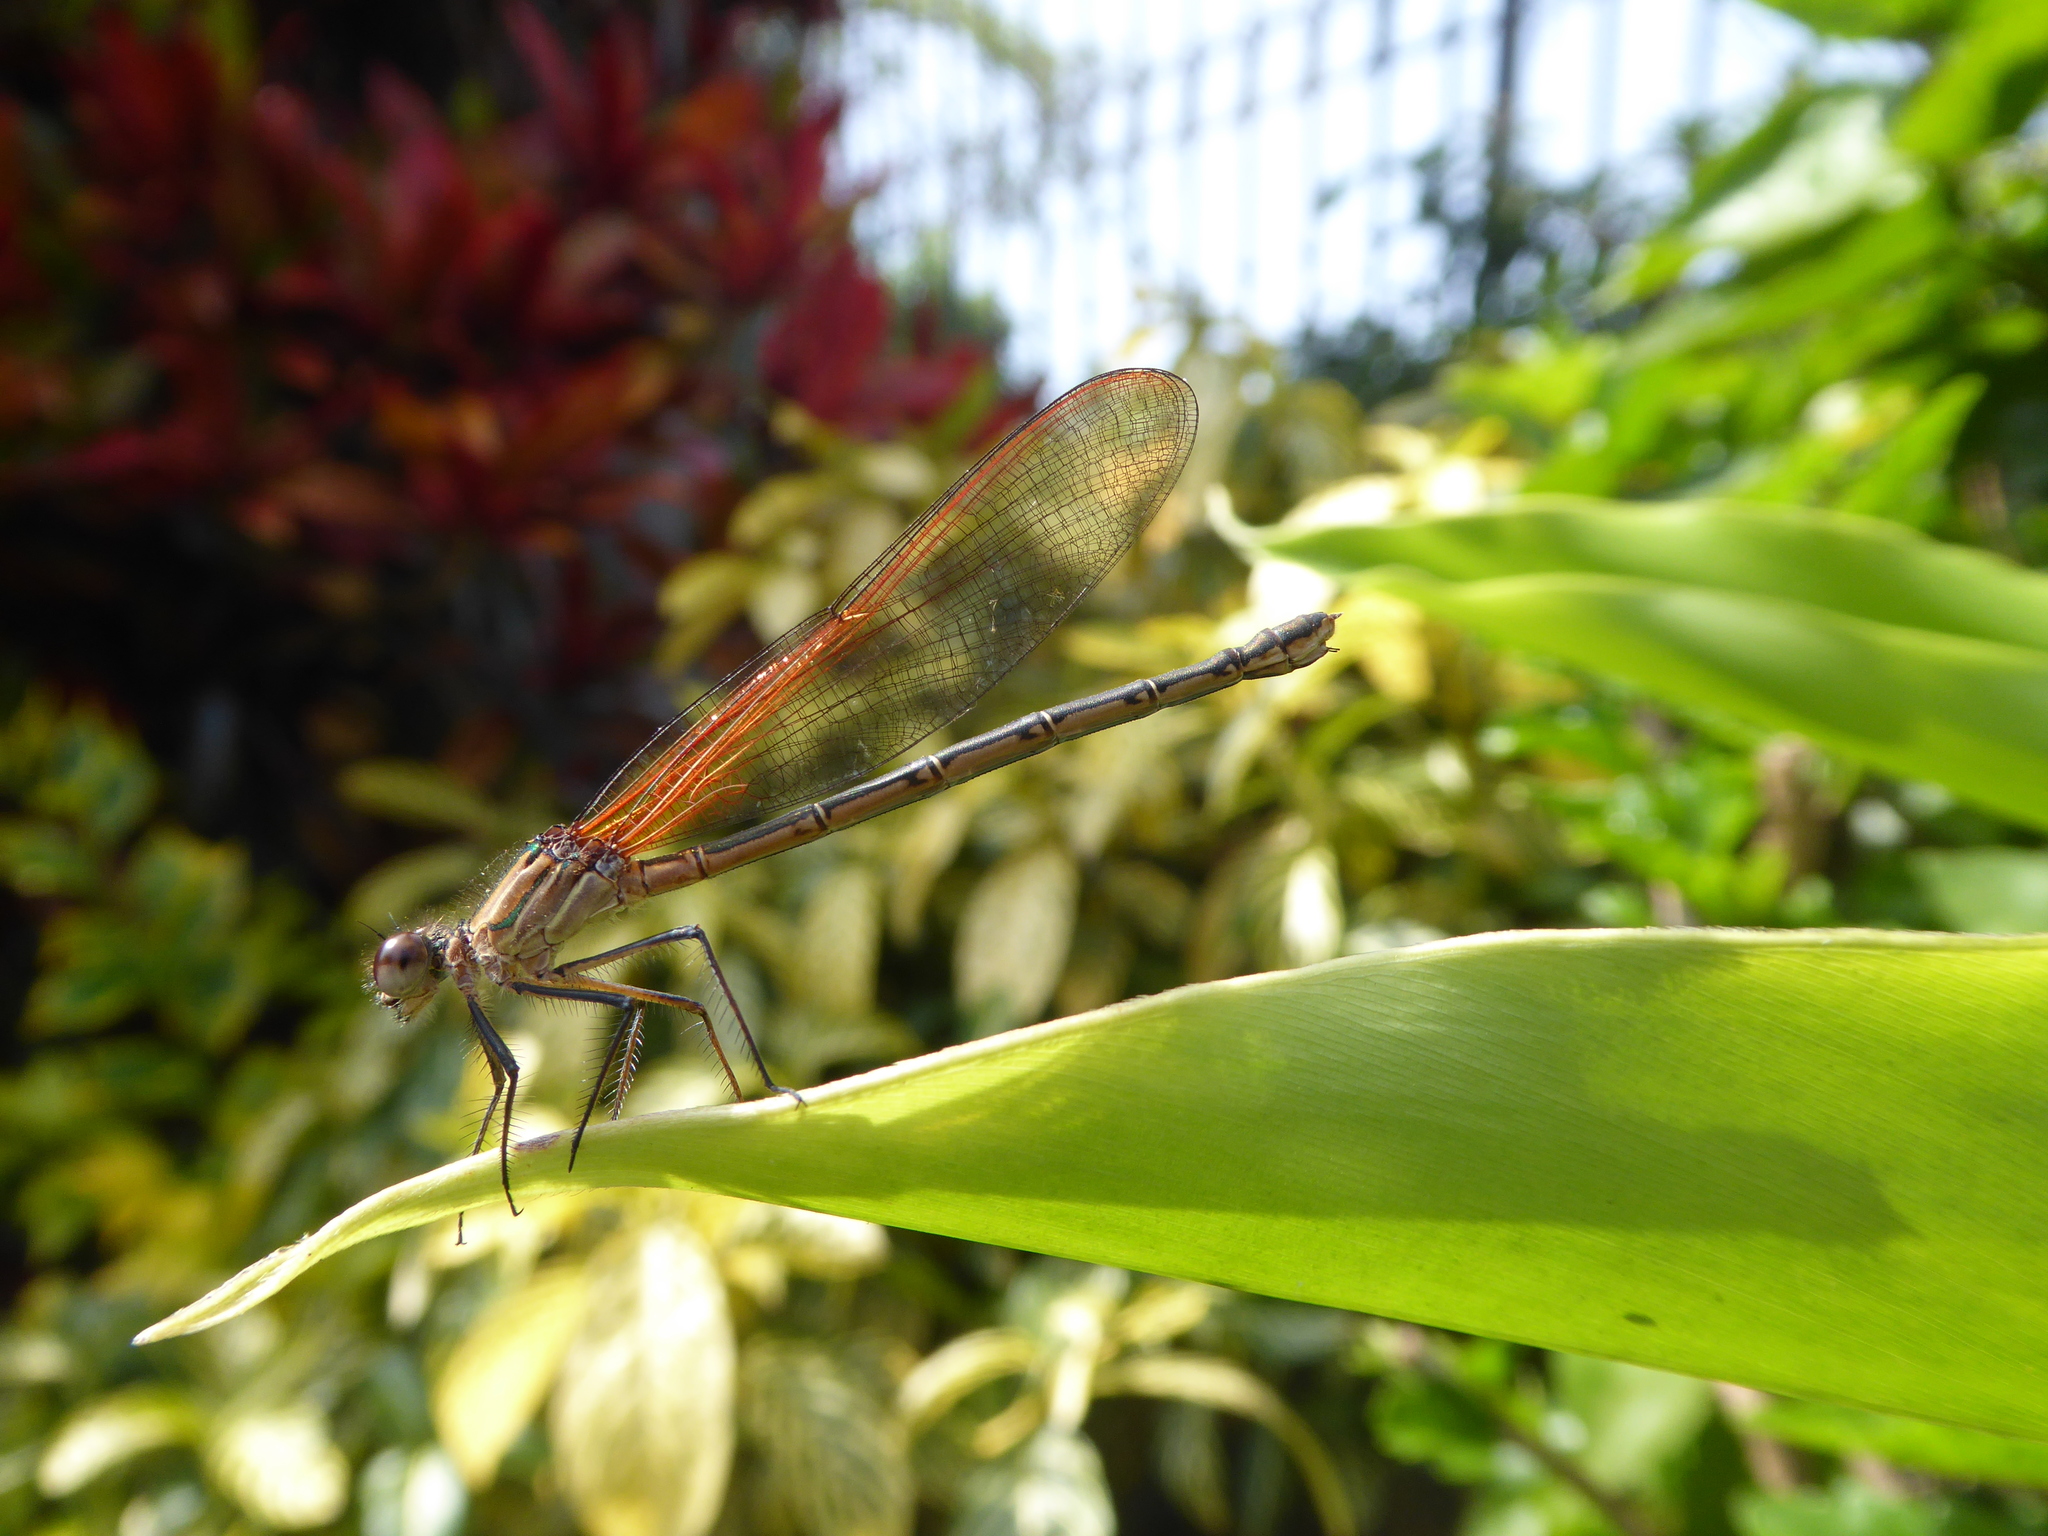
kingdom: Animalia
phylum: Arthropoda
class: Insecta
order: Odonata
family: Calopterygidae
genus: Hetaerina
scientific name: Hetaerina vulnerata
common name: Canyon rubyspot
